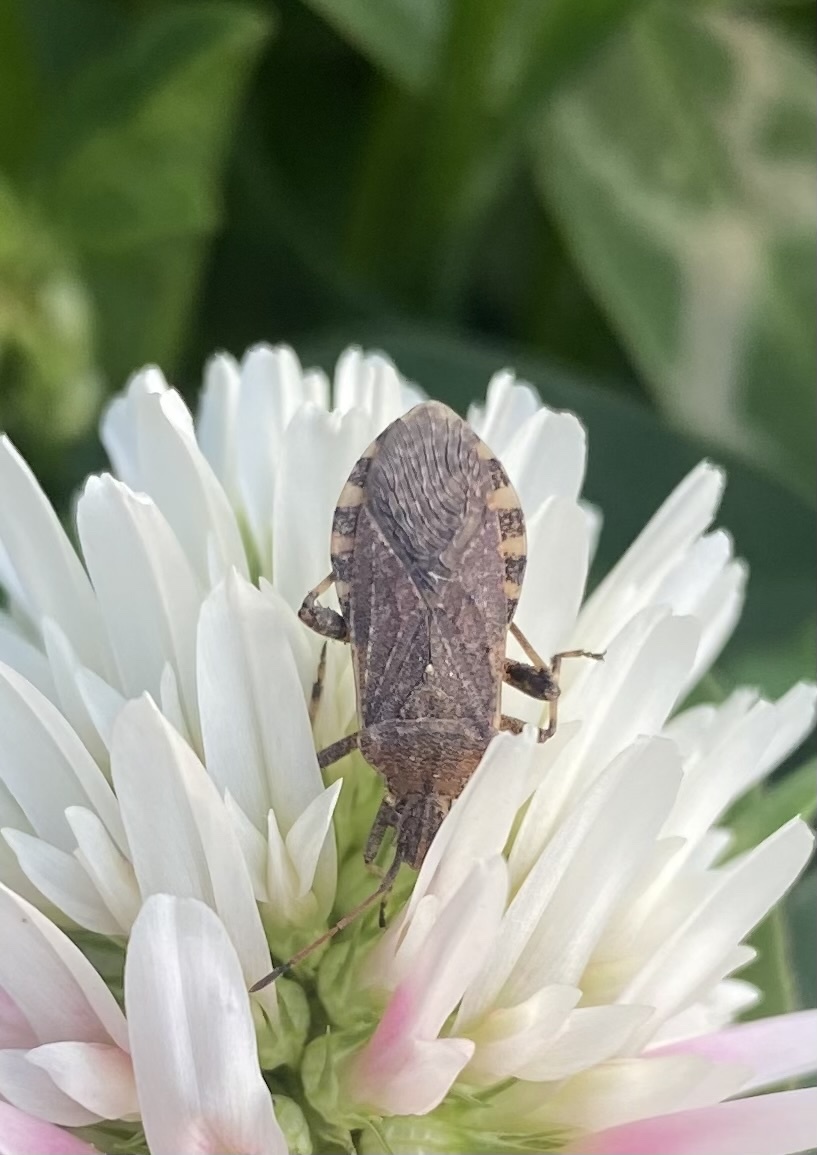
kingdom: Animalia
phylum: Arthropoda
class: Insecta
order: Hemiptera
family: Coreidae
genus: Ceraleptus
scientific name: Ceraleptus gracilicornis
